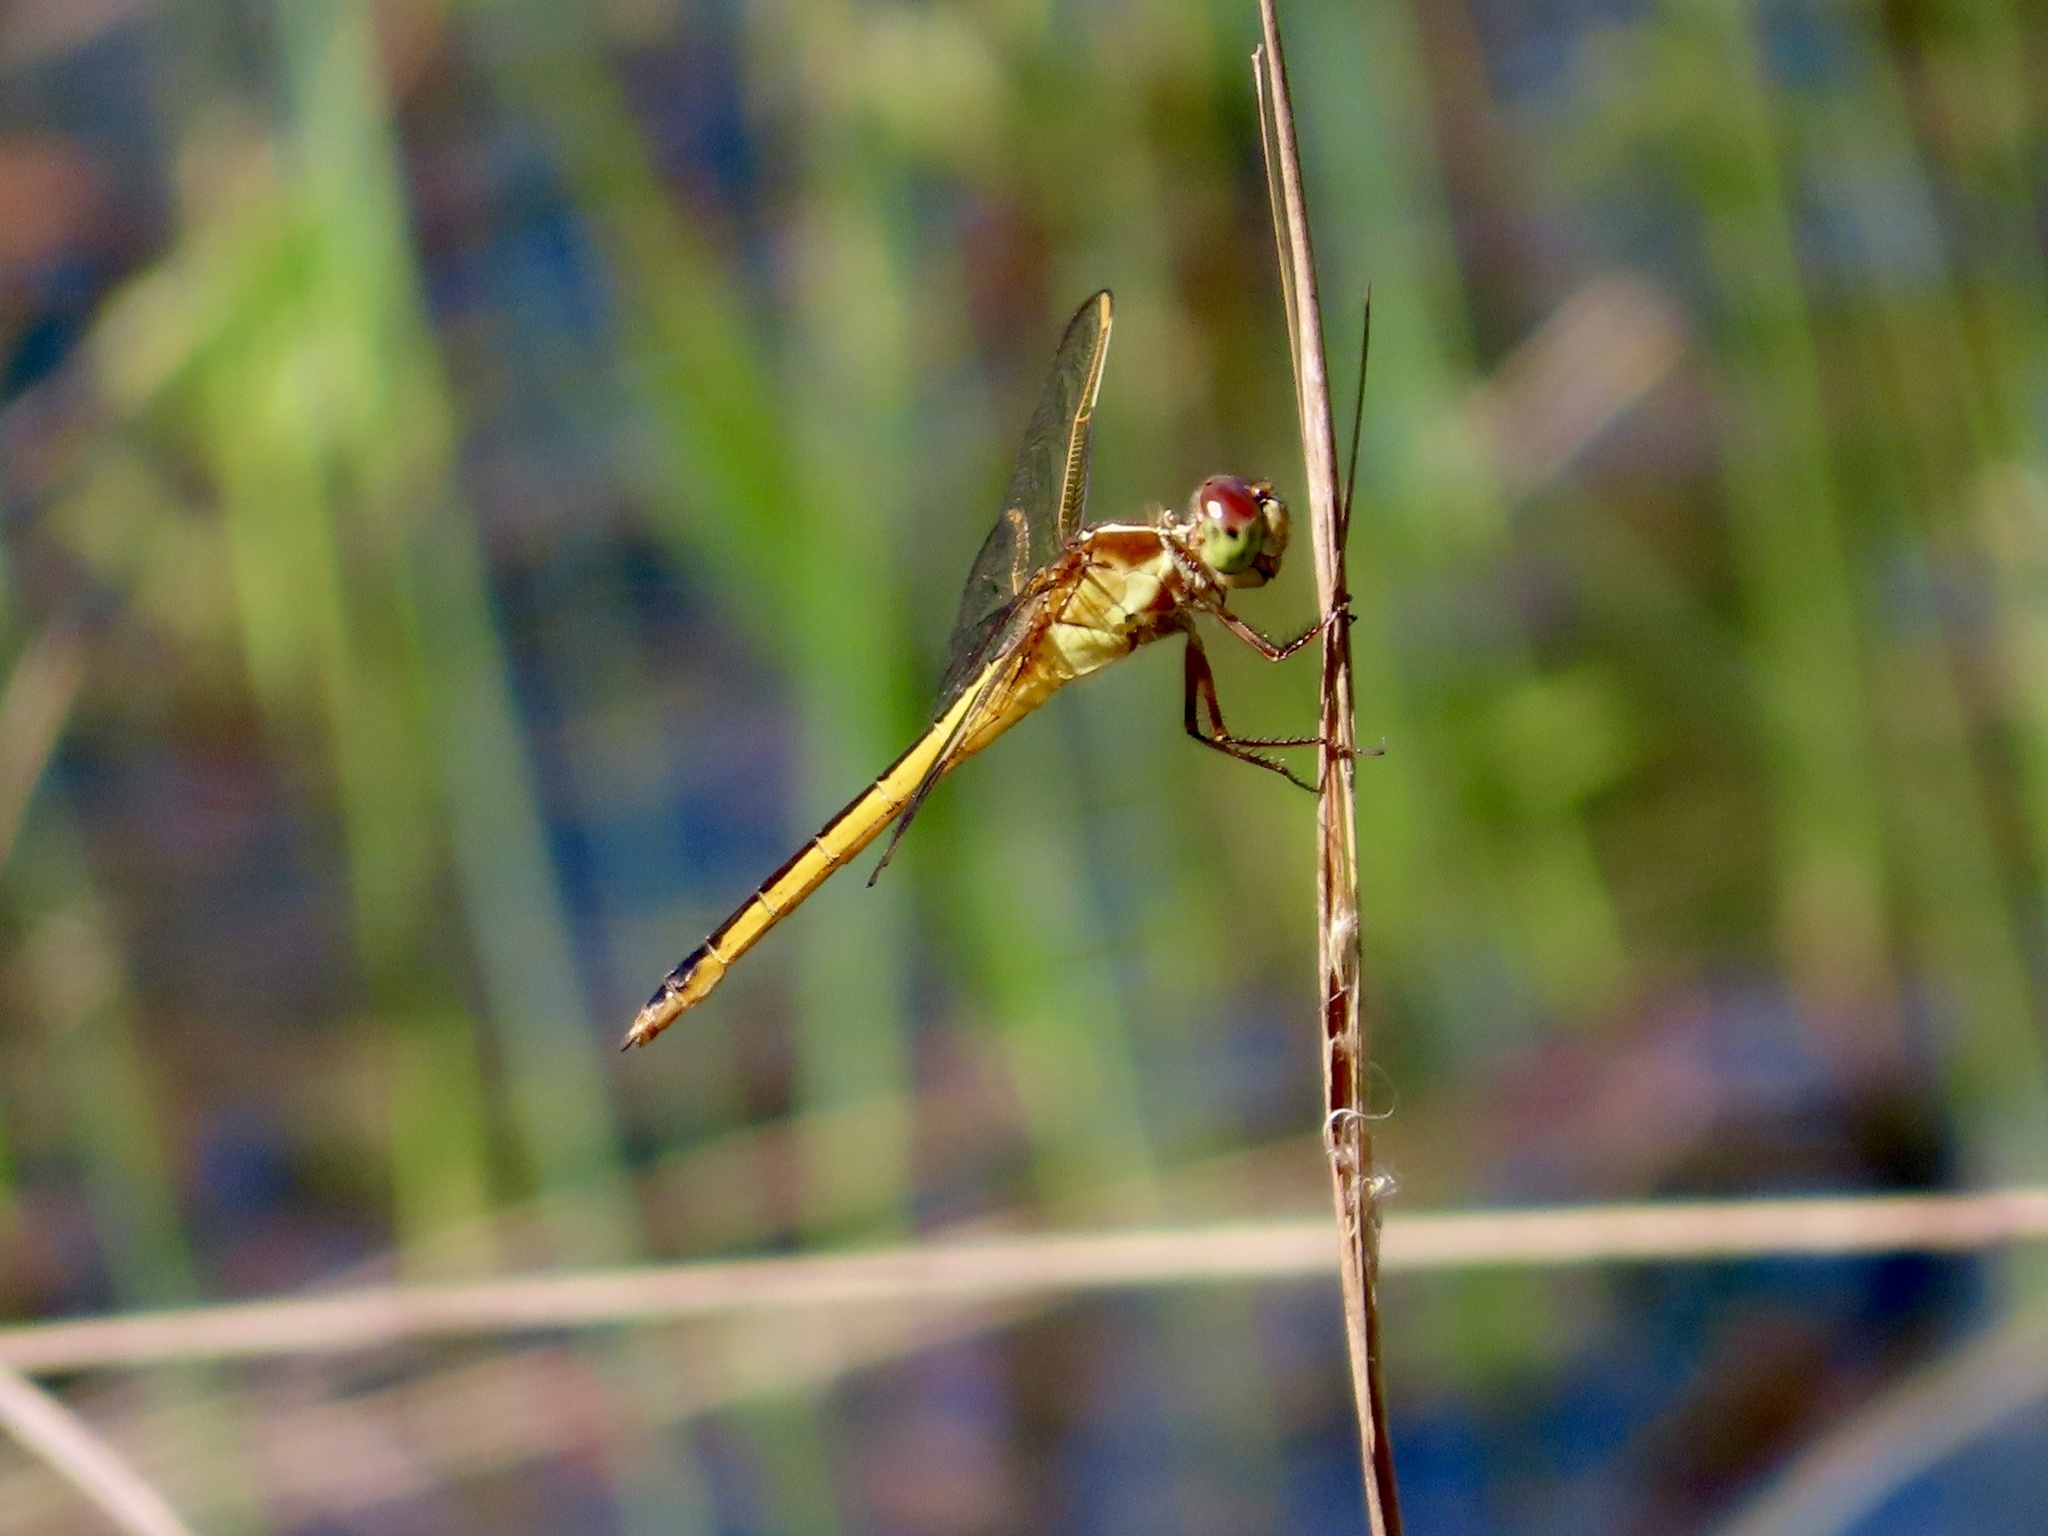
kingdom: Animalia
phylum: Arthropoda
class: Insecta
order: Odonata
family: Libellulidae
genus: Libellula
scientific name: Libellula needhami
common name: Needham's skimmer
